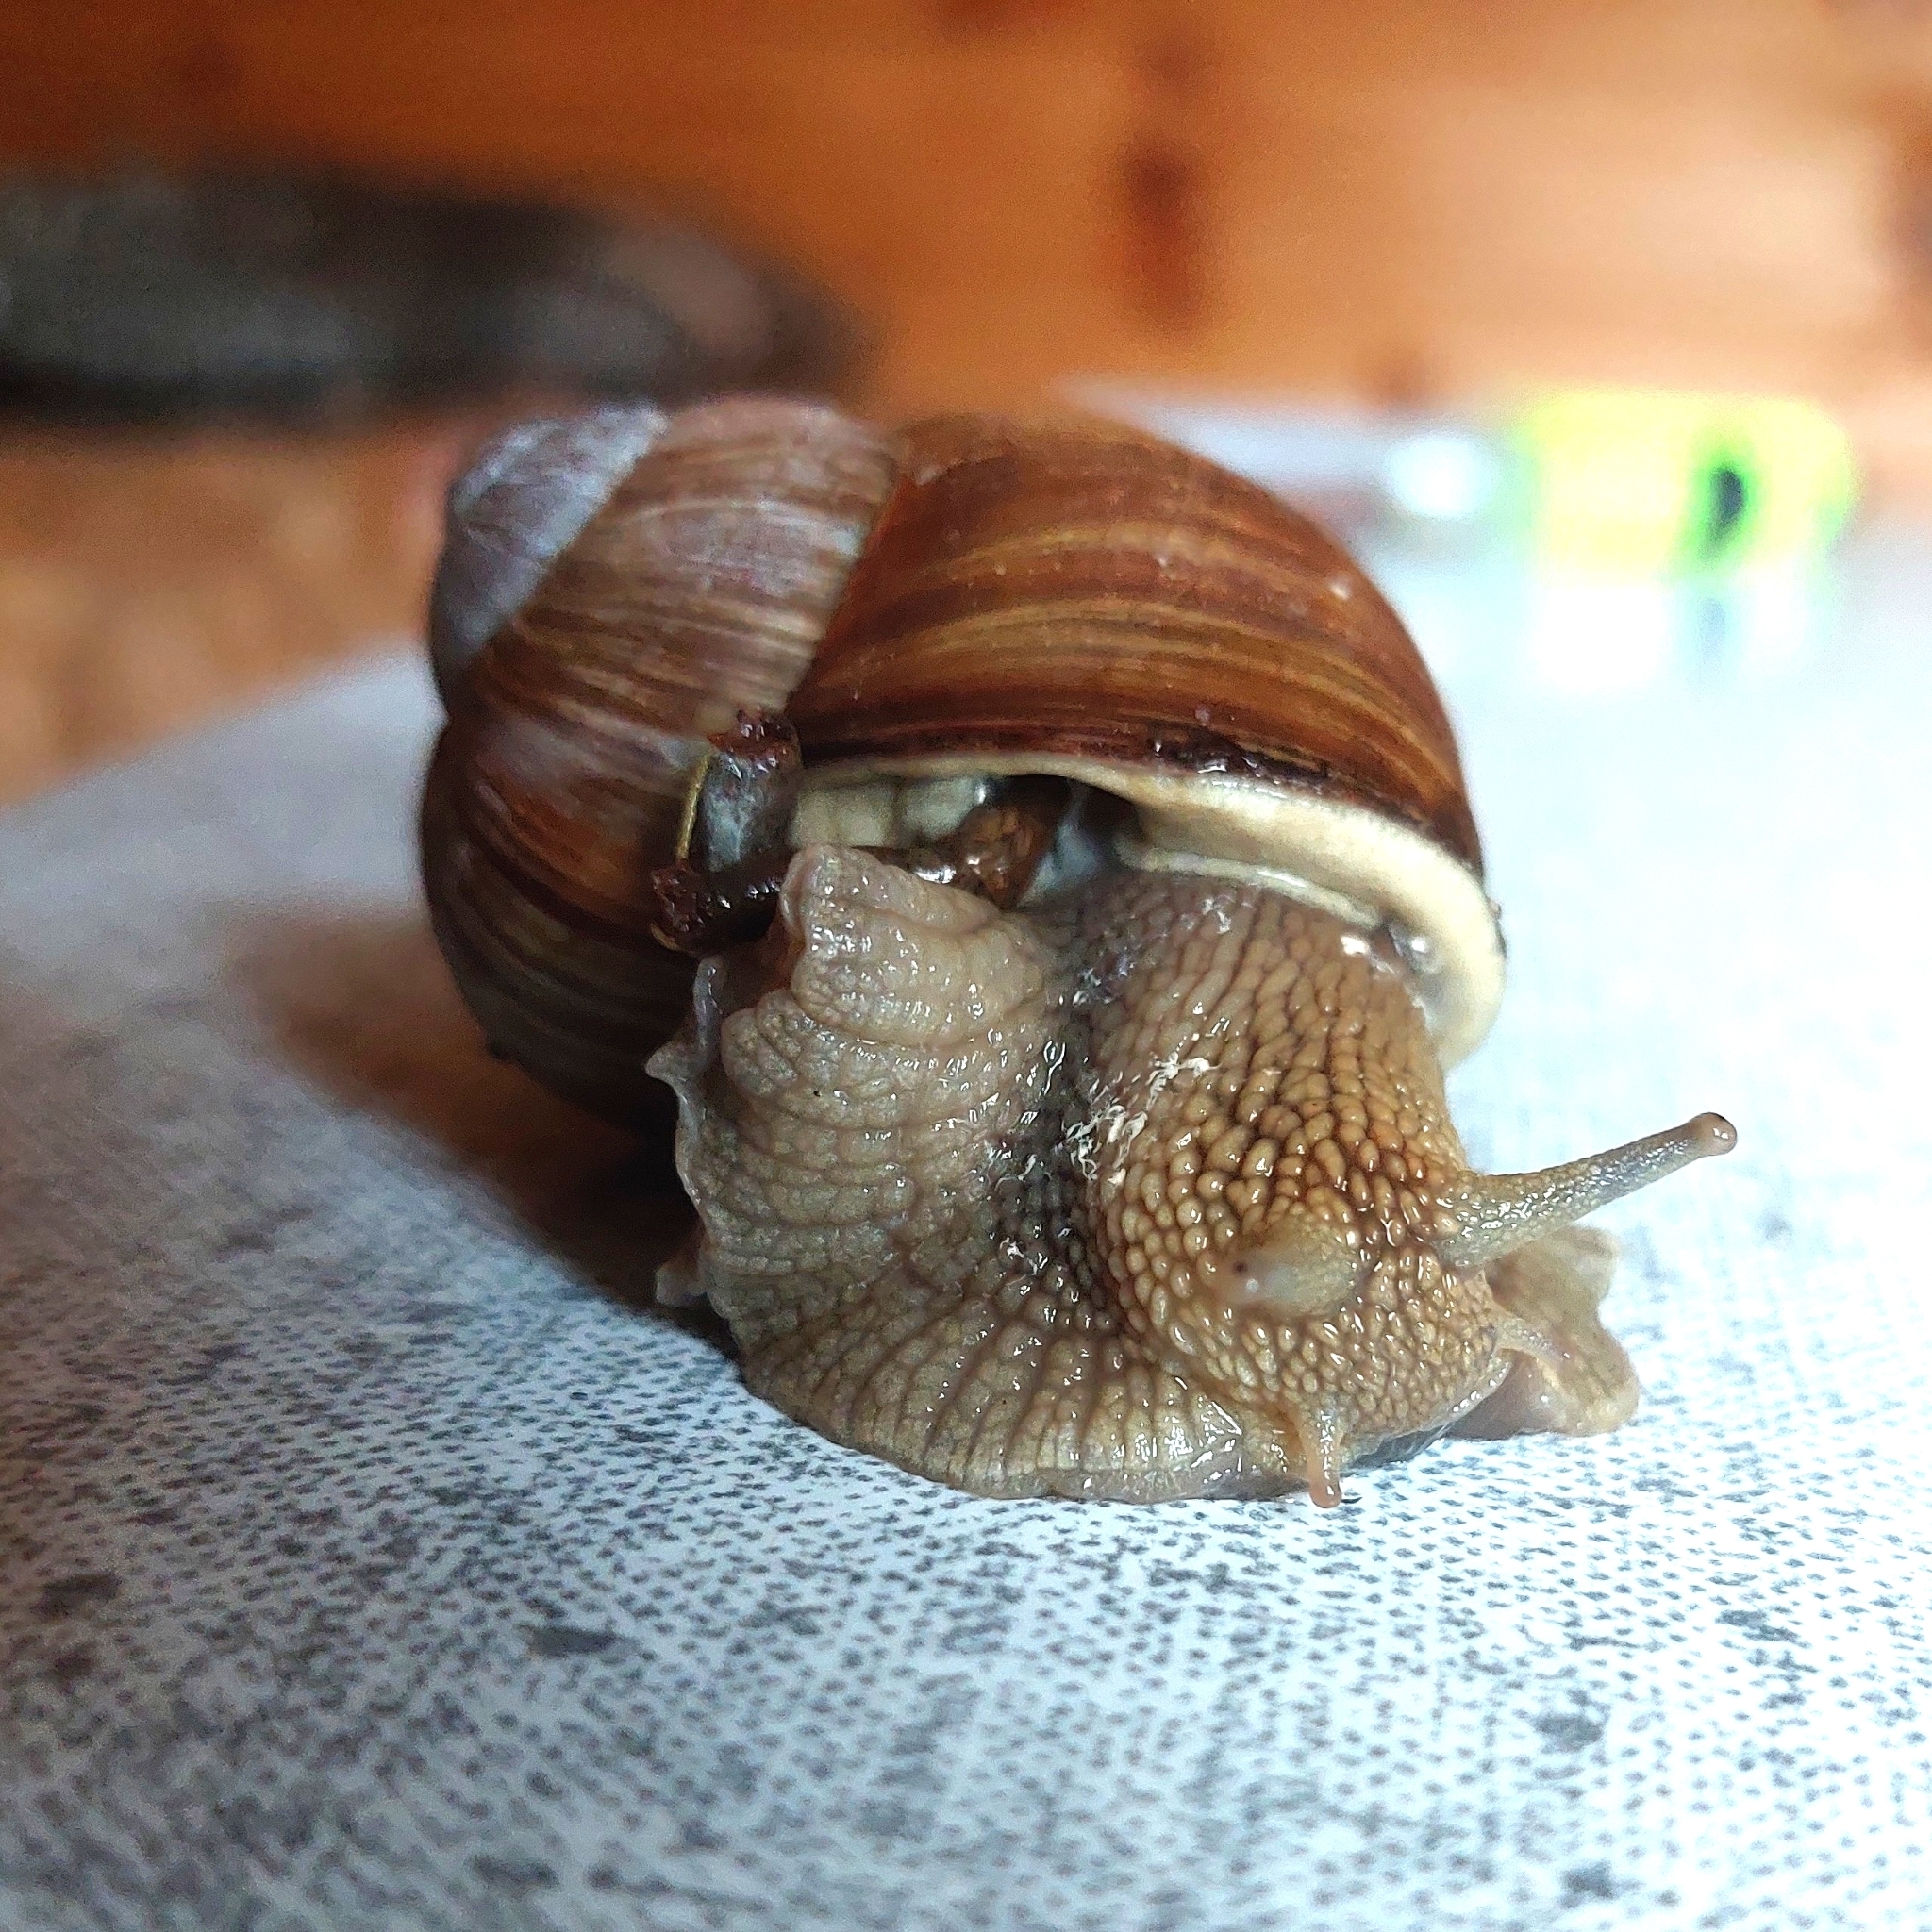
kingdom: Animalia
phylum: Mollusca
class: Gastropoda
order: Stylommatophora
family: Helicidae
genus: Helix
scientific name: Helix pomatia
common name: Roman snail
